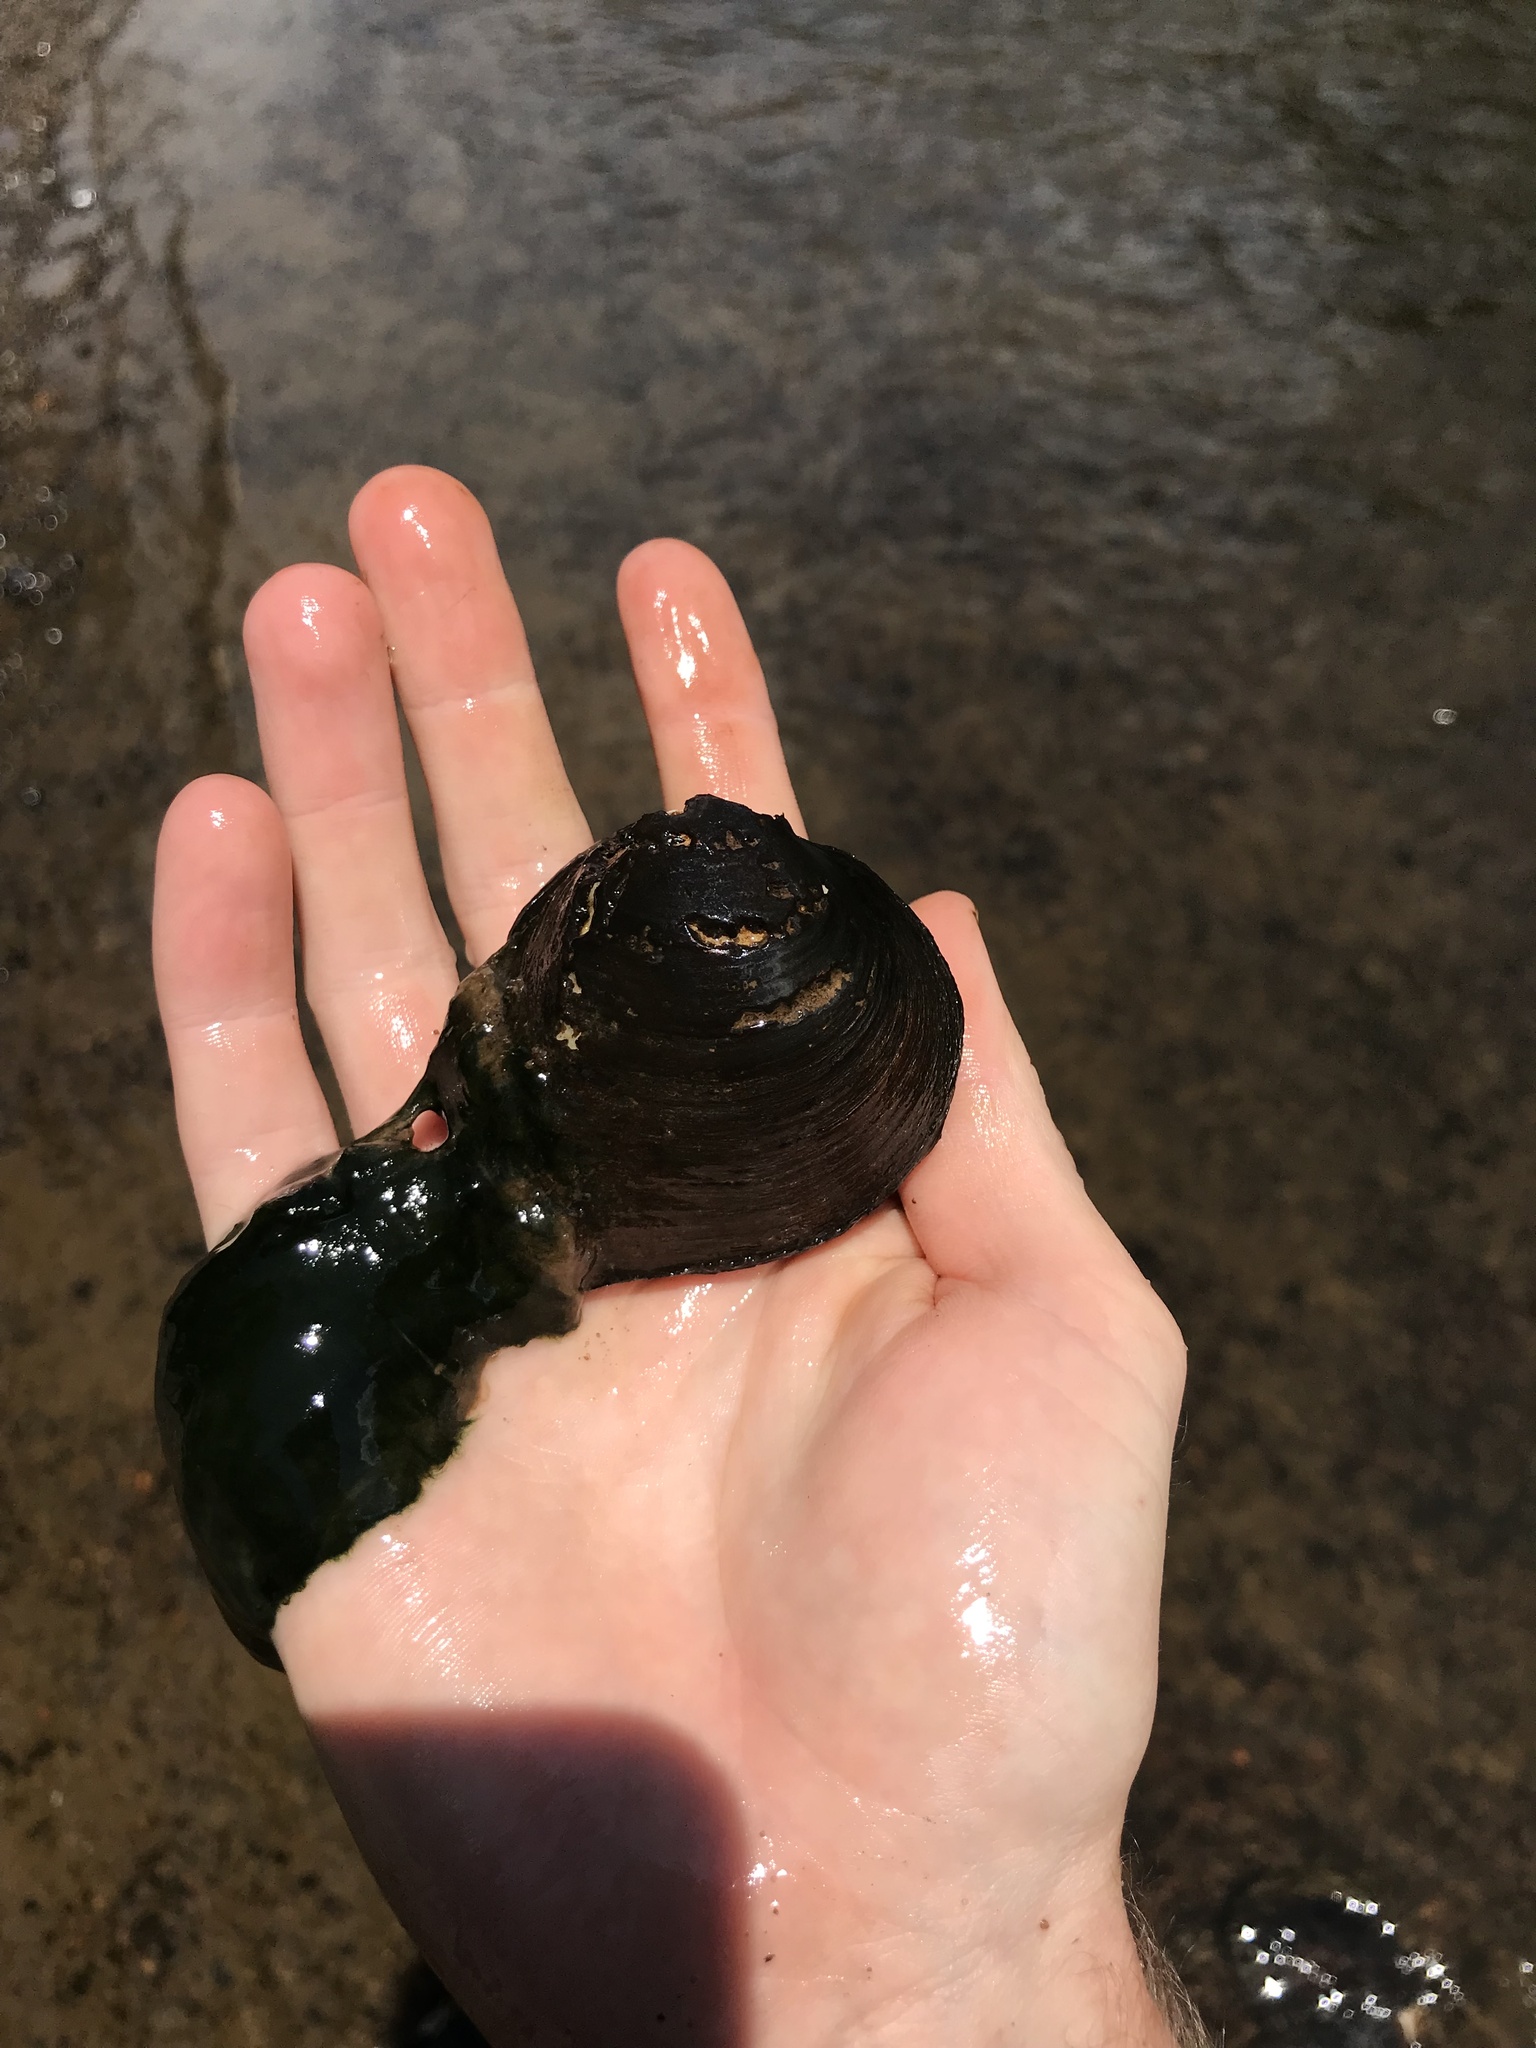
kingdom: Animalia
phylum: Mollusca
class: Bivalvia
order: Unionida
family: Unionidae
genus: Fusconaia
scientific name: Fusconaia cerina
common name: Gulf pigtoe
